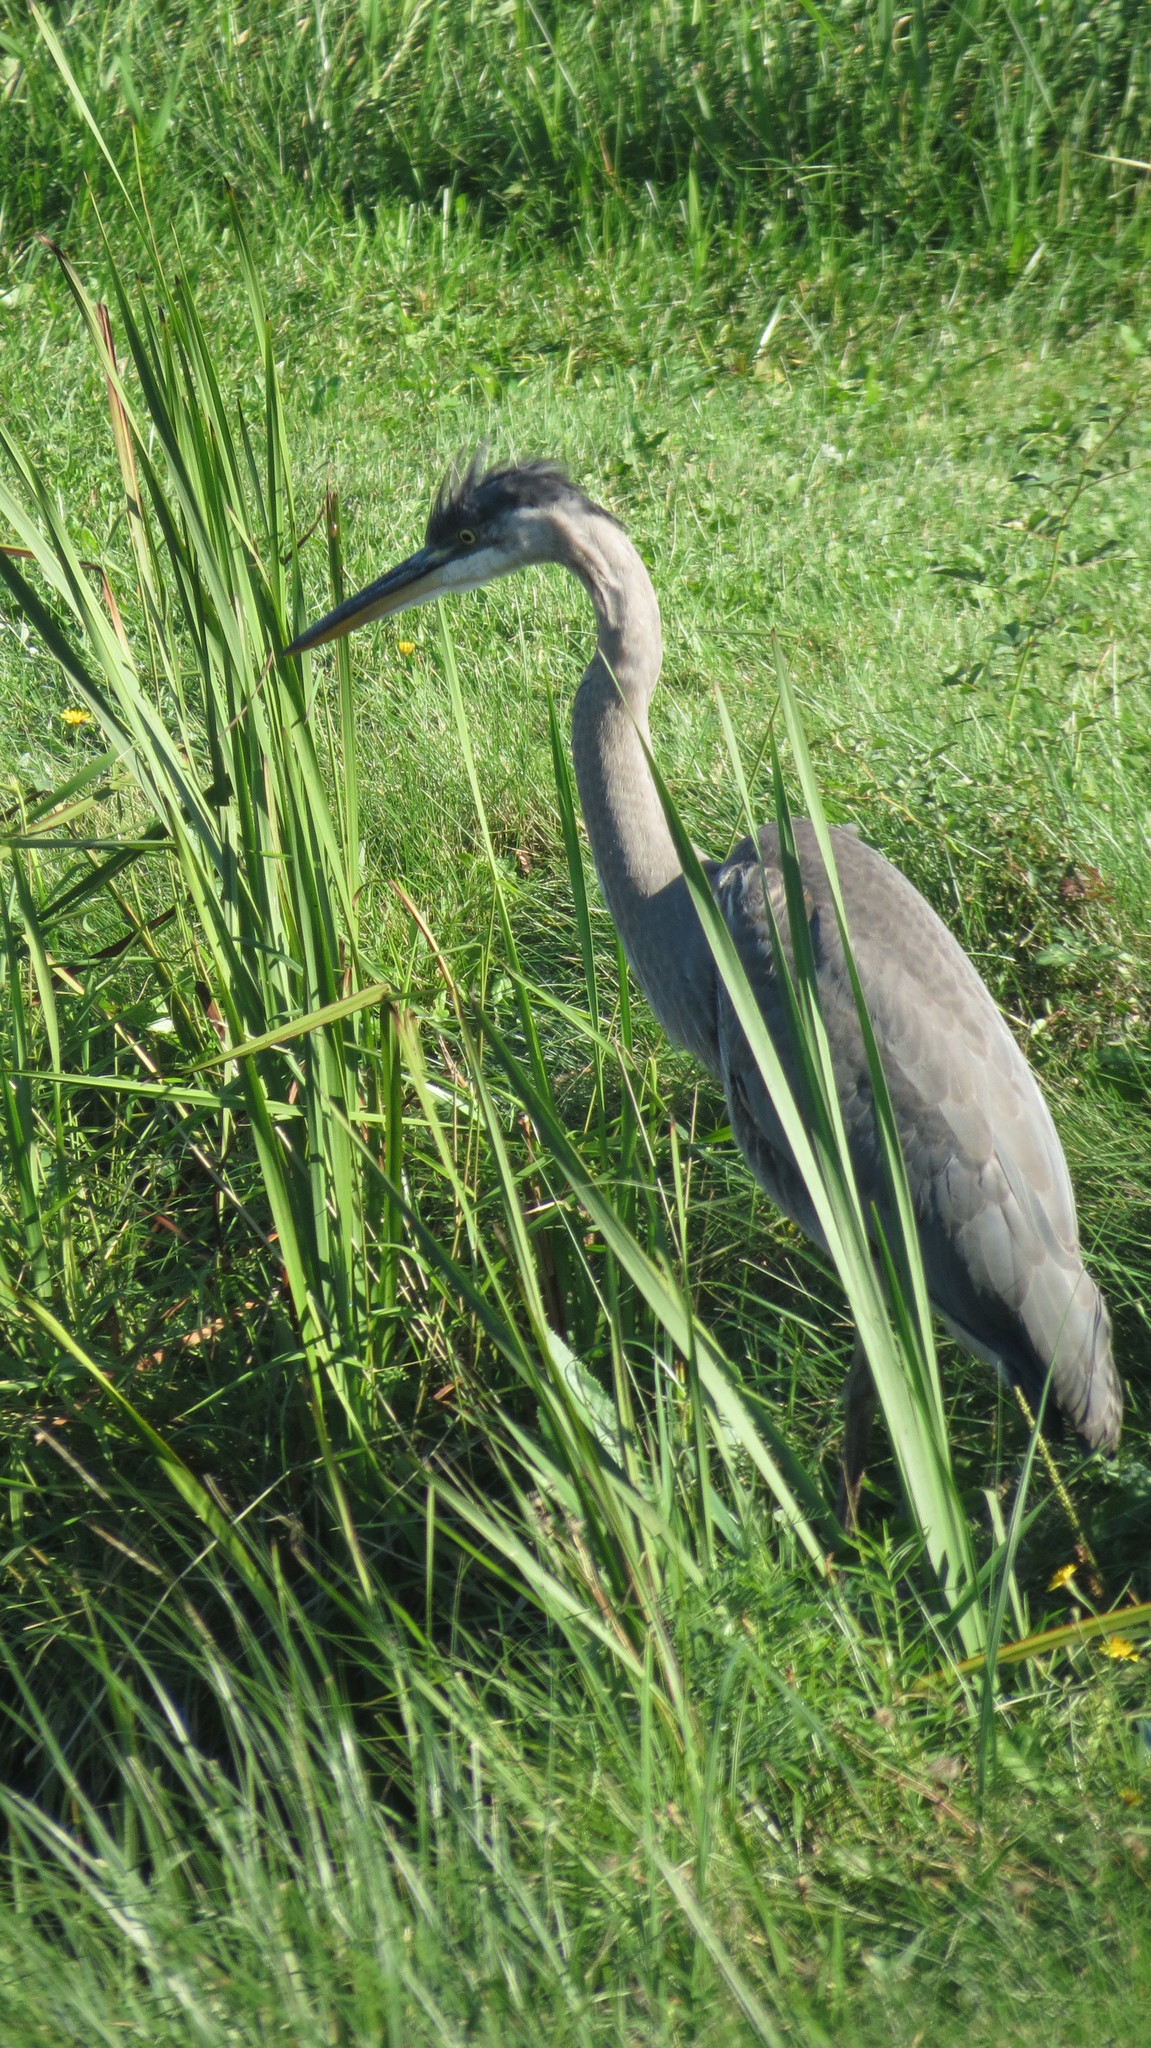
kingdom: Animalia
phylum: Chordata
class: Aves
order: Pelecaniformes
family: Ardeidae
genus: Ardea
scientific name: Ardea herodias
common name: Great blue heron
